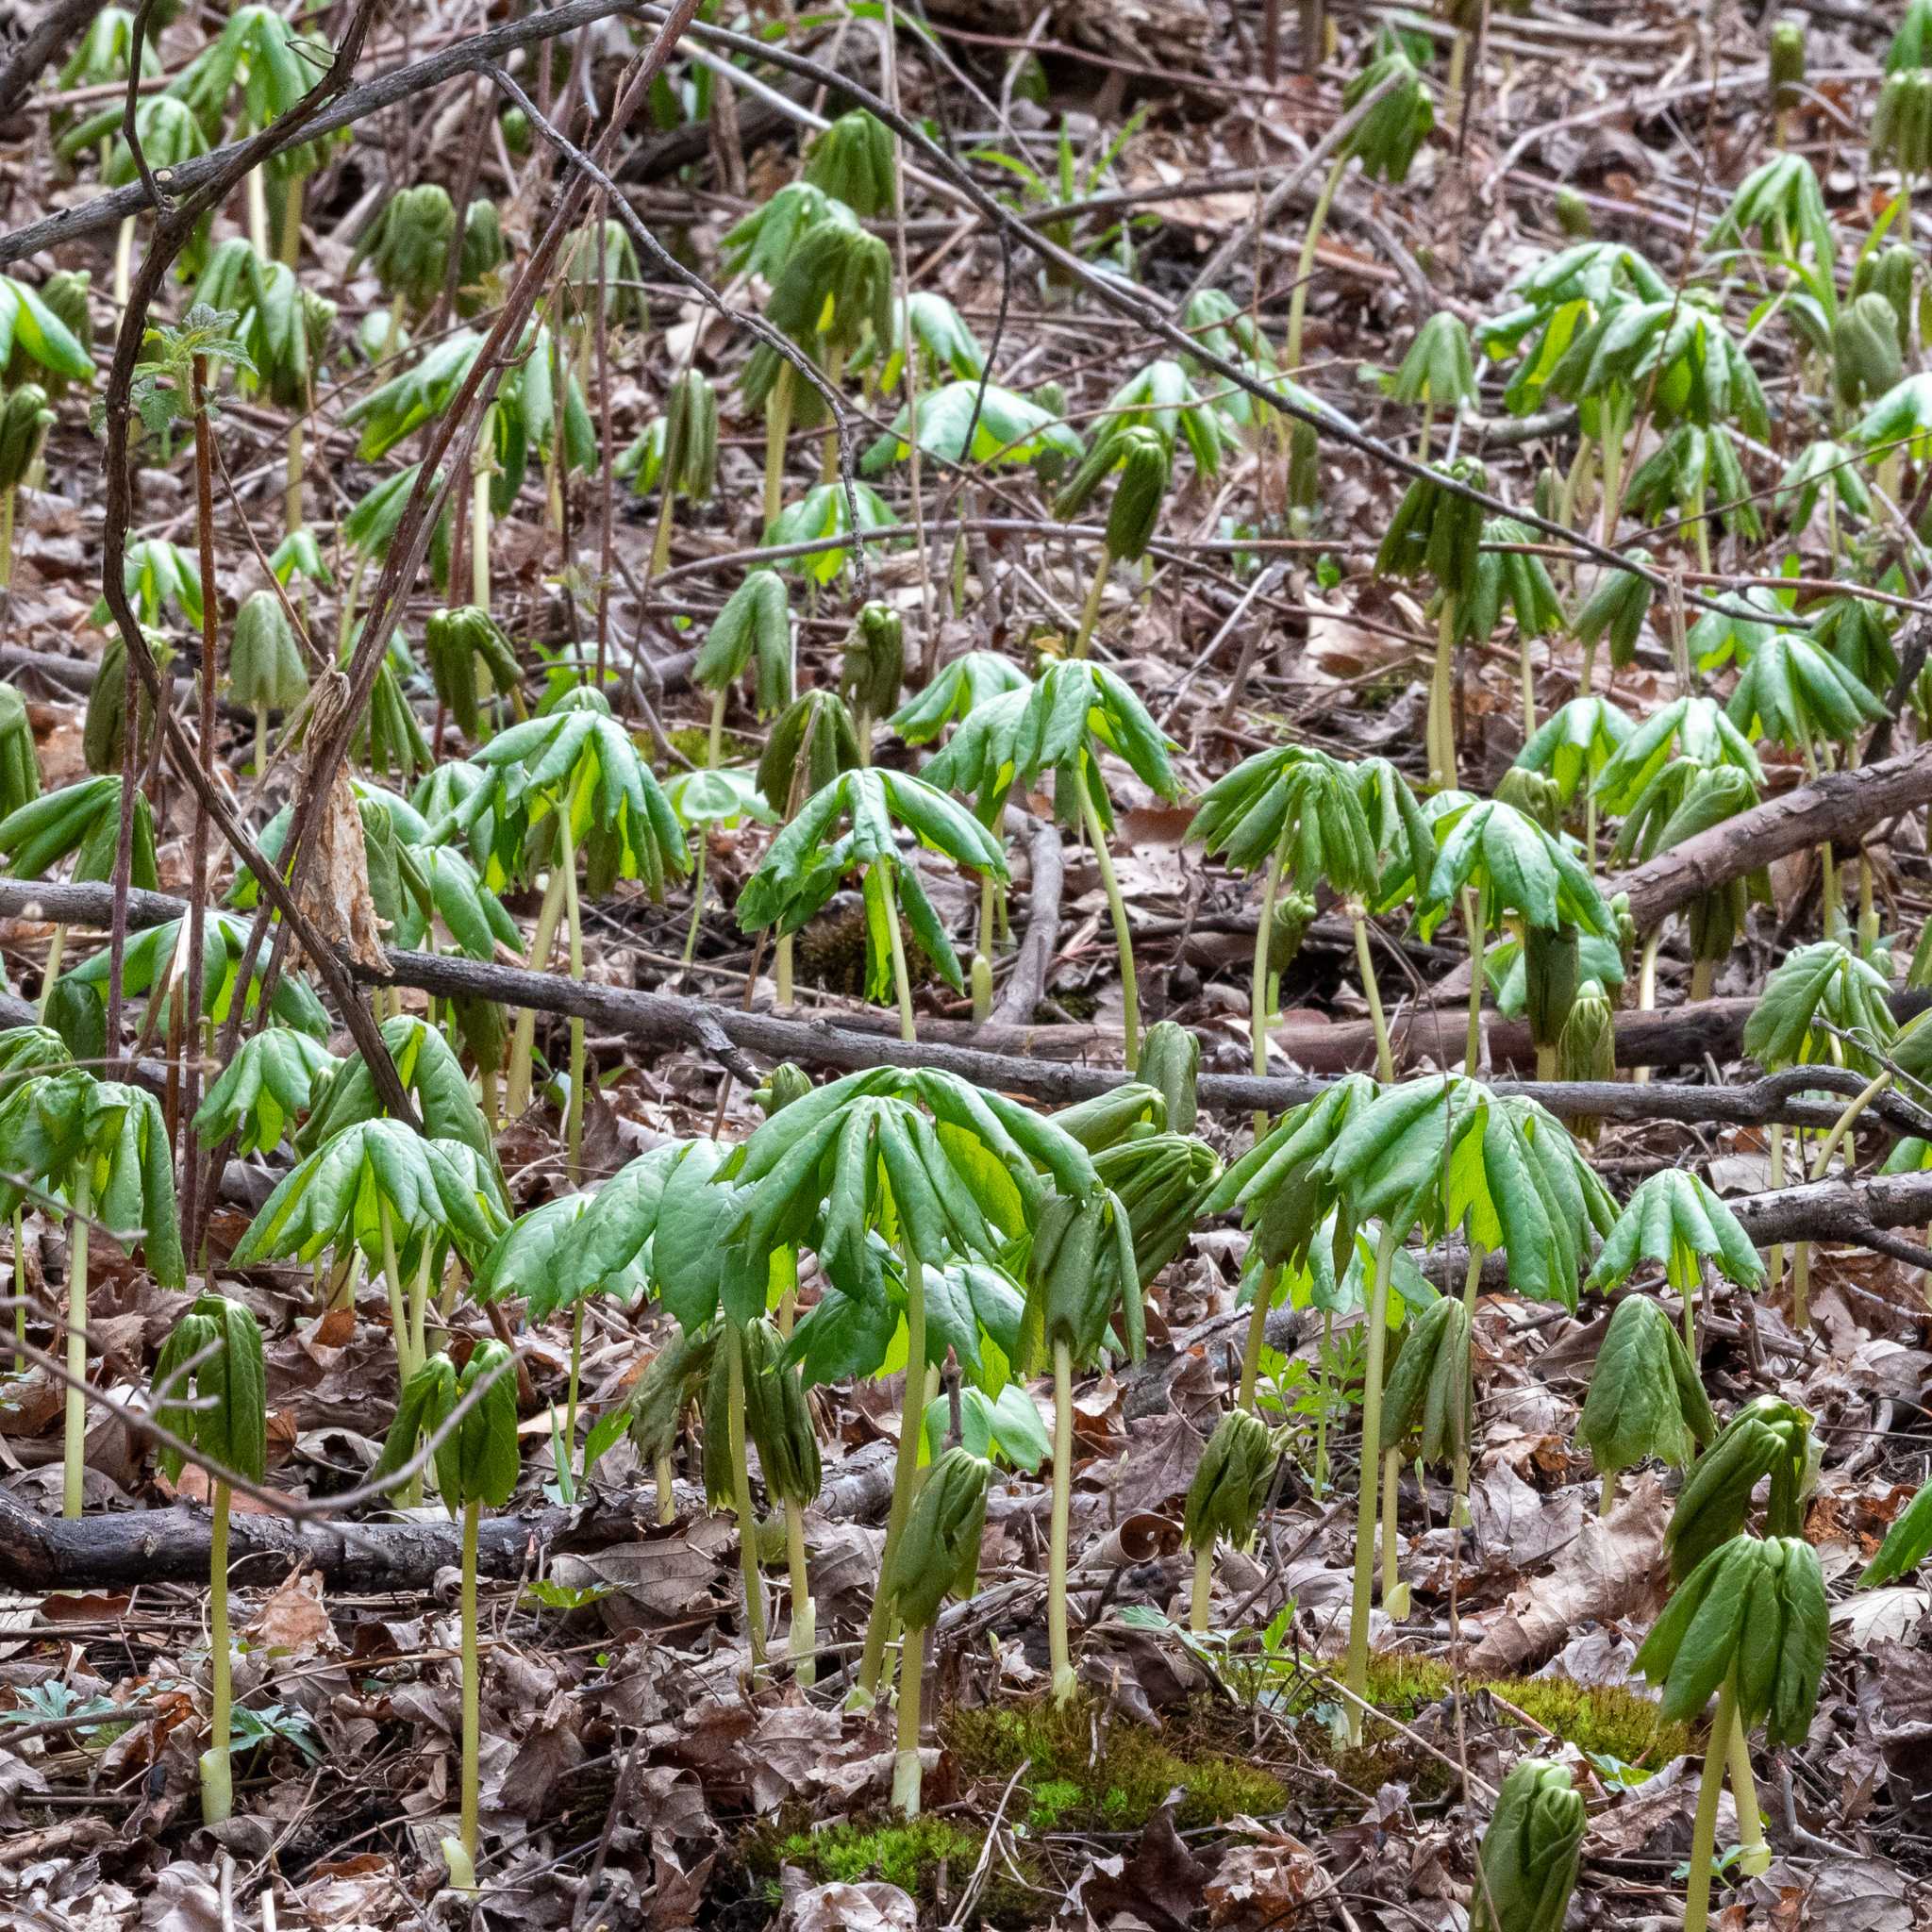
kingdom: Plantae
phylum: Tracheophyta
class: Magnoliopsida
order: Ranunculales
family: Berberidaceae
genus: Podophyllum
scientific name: Podophyllum peltatum
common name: Wild mandrake
